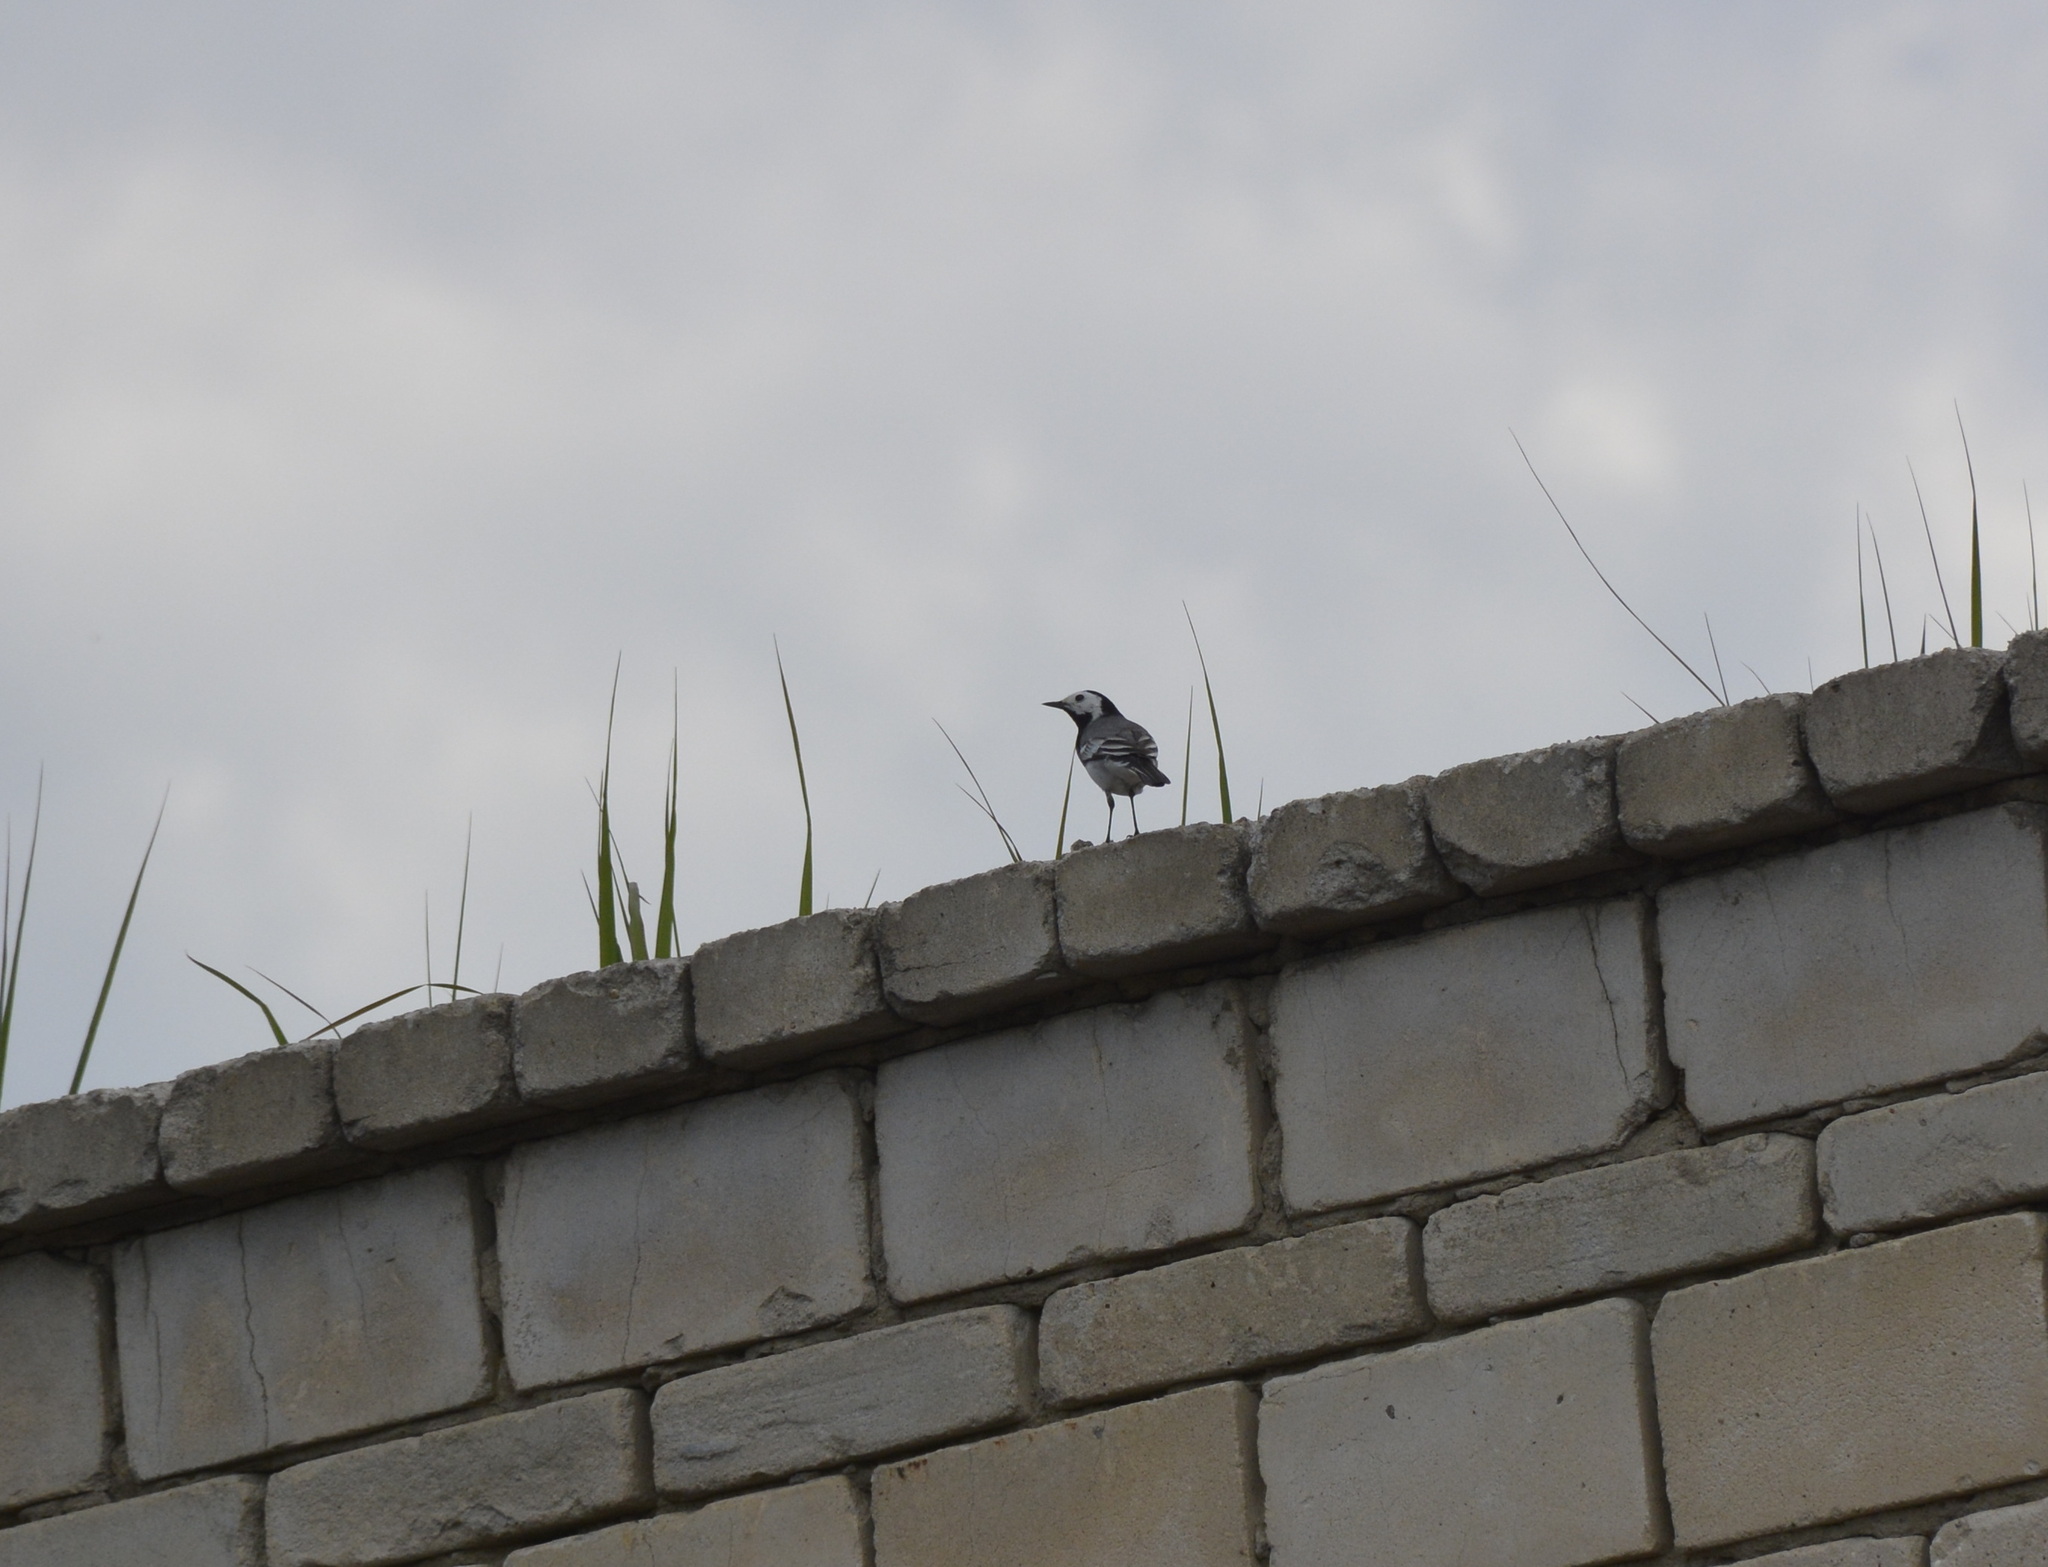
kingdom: Animalia
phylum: Chordata
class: Aves
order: Passeriformes
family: Motacillidae
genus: Motacilla
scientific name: Motacilla alba
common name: White wagtail
